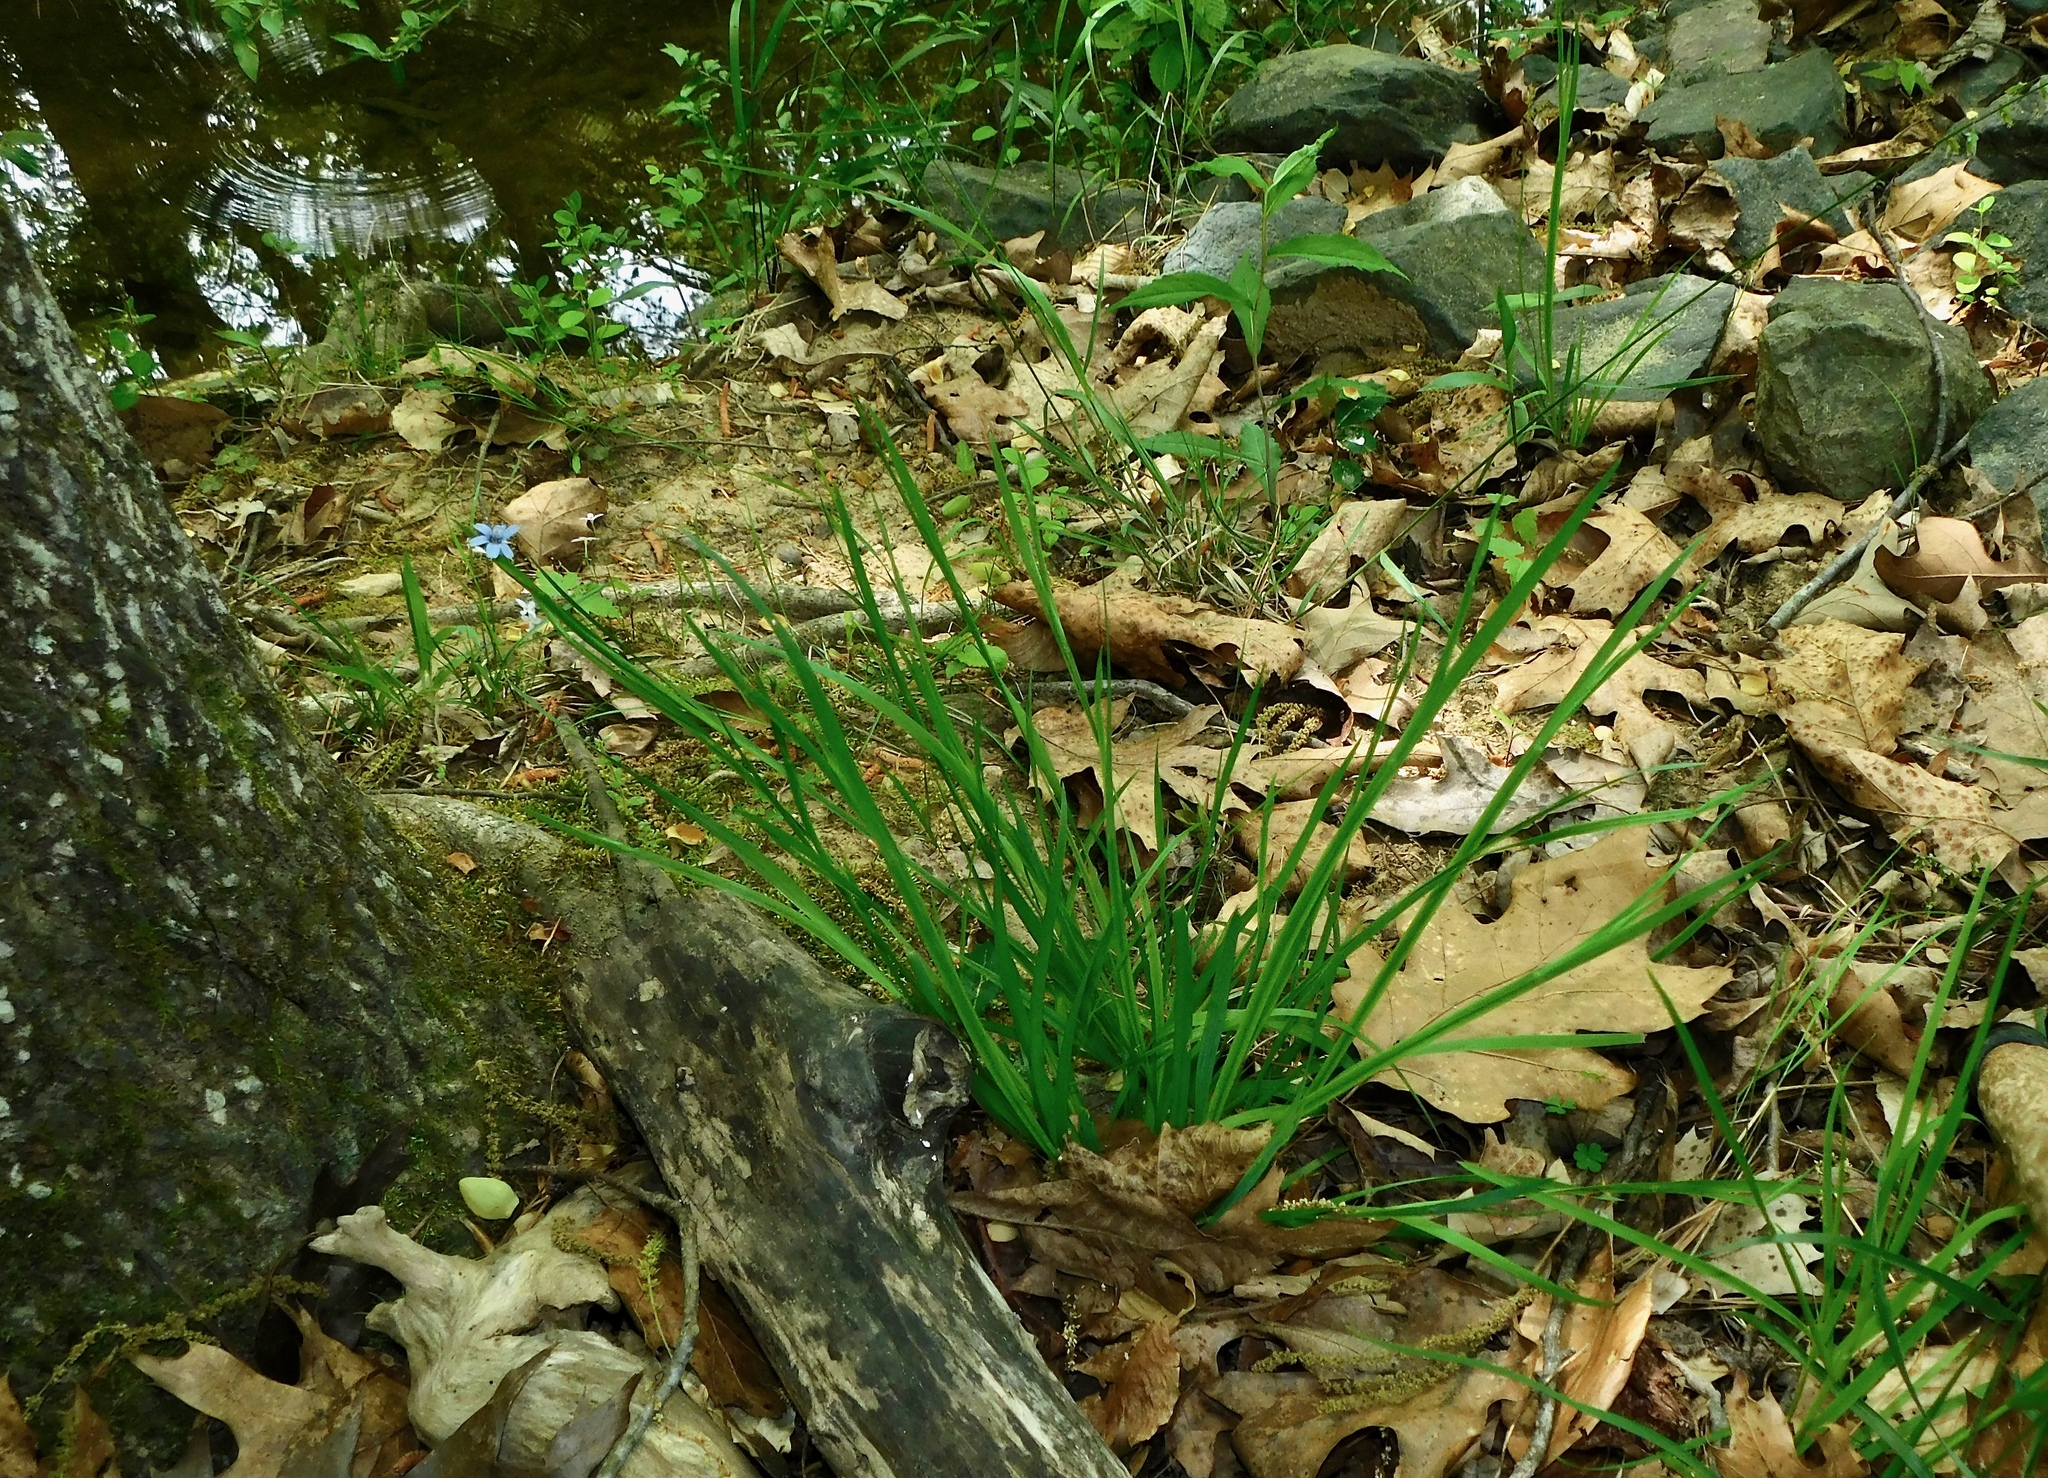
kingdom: Plantae
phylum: Tracheophyta
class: Liliopsida
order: Asparagales
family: Iridaceae
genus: Sisyrinchium
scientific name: Sisyrinchium angustifolium
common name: Narrow-leaf blue-eyed-grass
